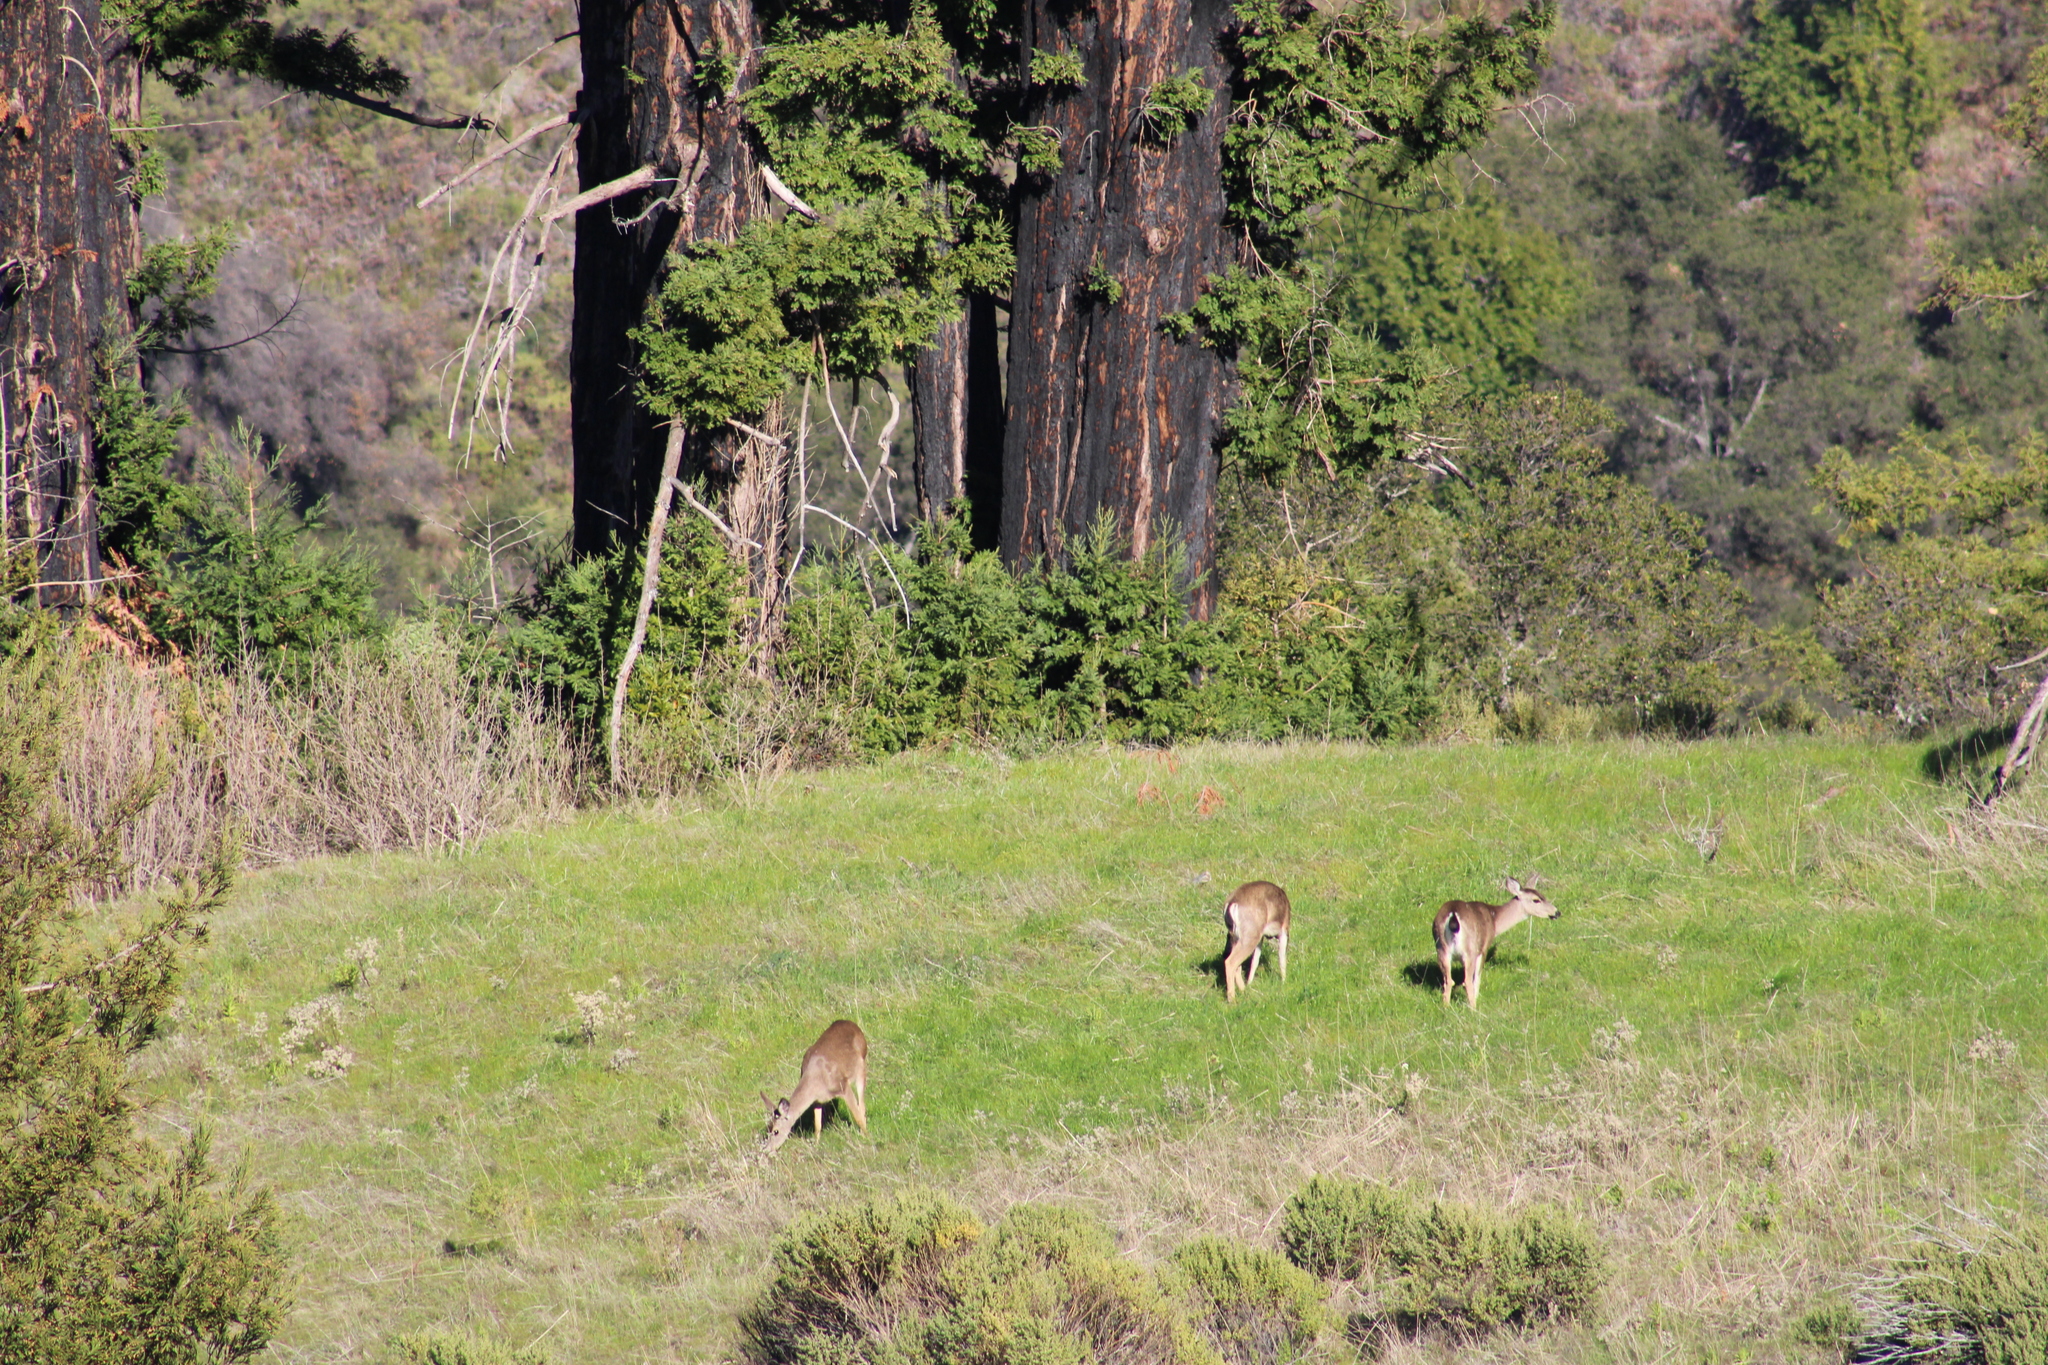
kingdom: Animalia
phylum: Chordata
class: Mammalia
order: Artiodactyla
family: Cervidae
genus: Odocoileus
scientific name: Odocoileus hemionus
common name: Mule deer
